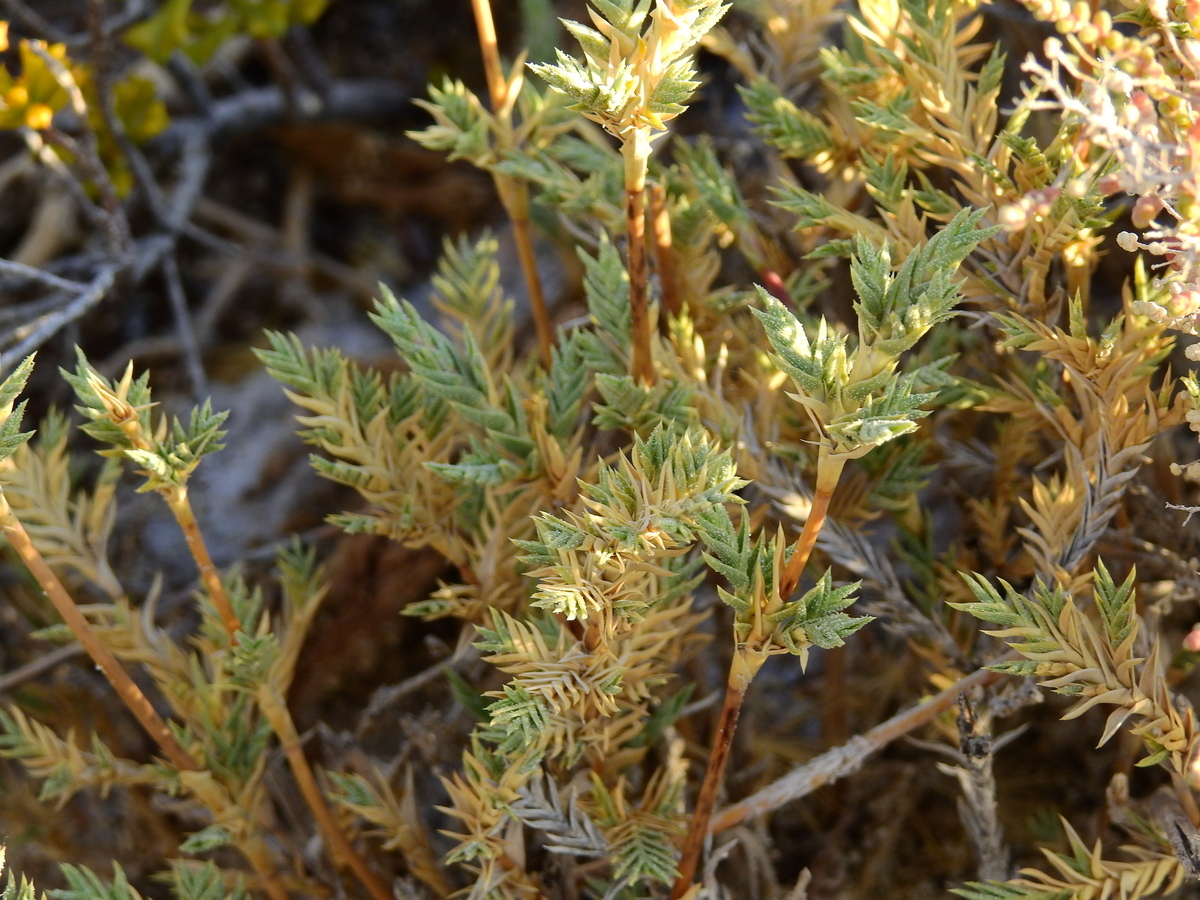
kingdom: Plantae
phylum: Tracheophyta
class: Liliopsida
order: Poales
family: Poaceae
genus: Distichlis
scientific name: Distichlis acerosa
